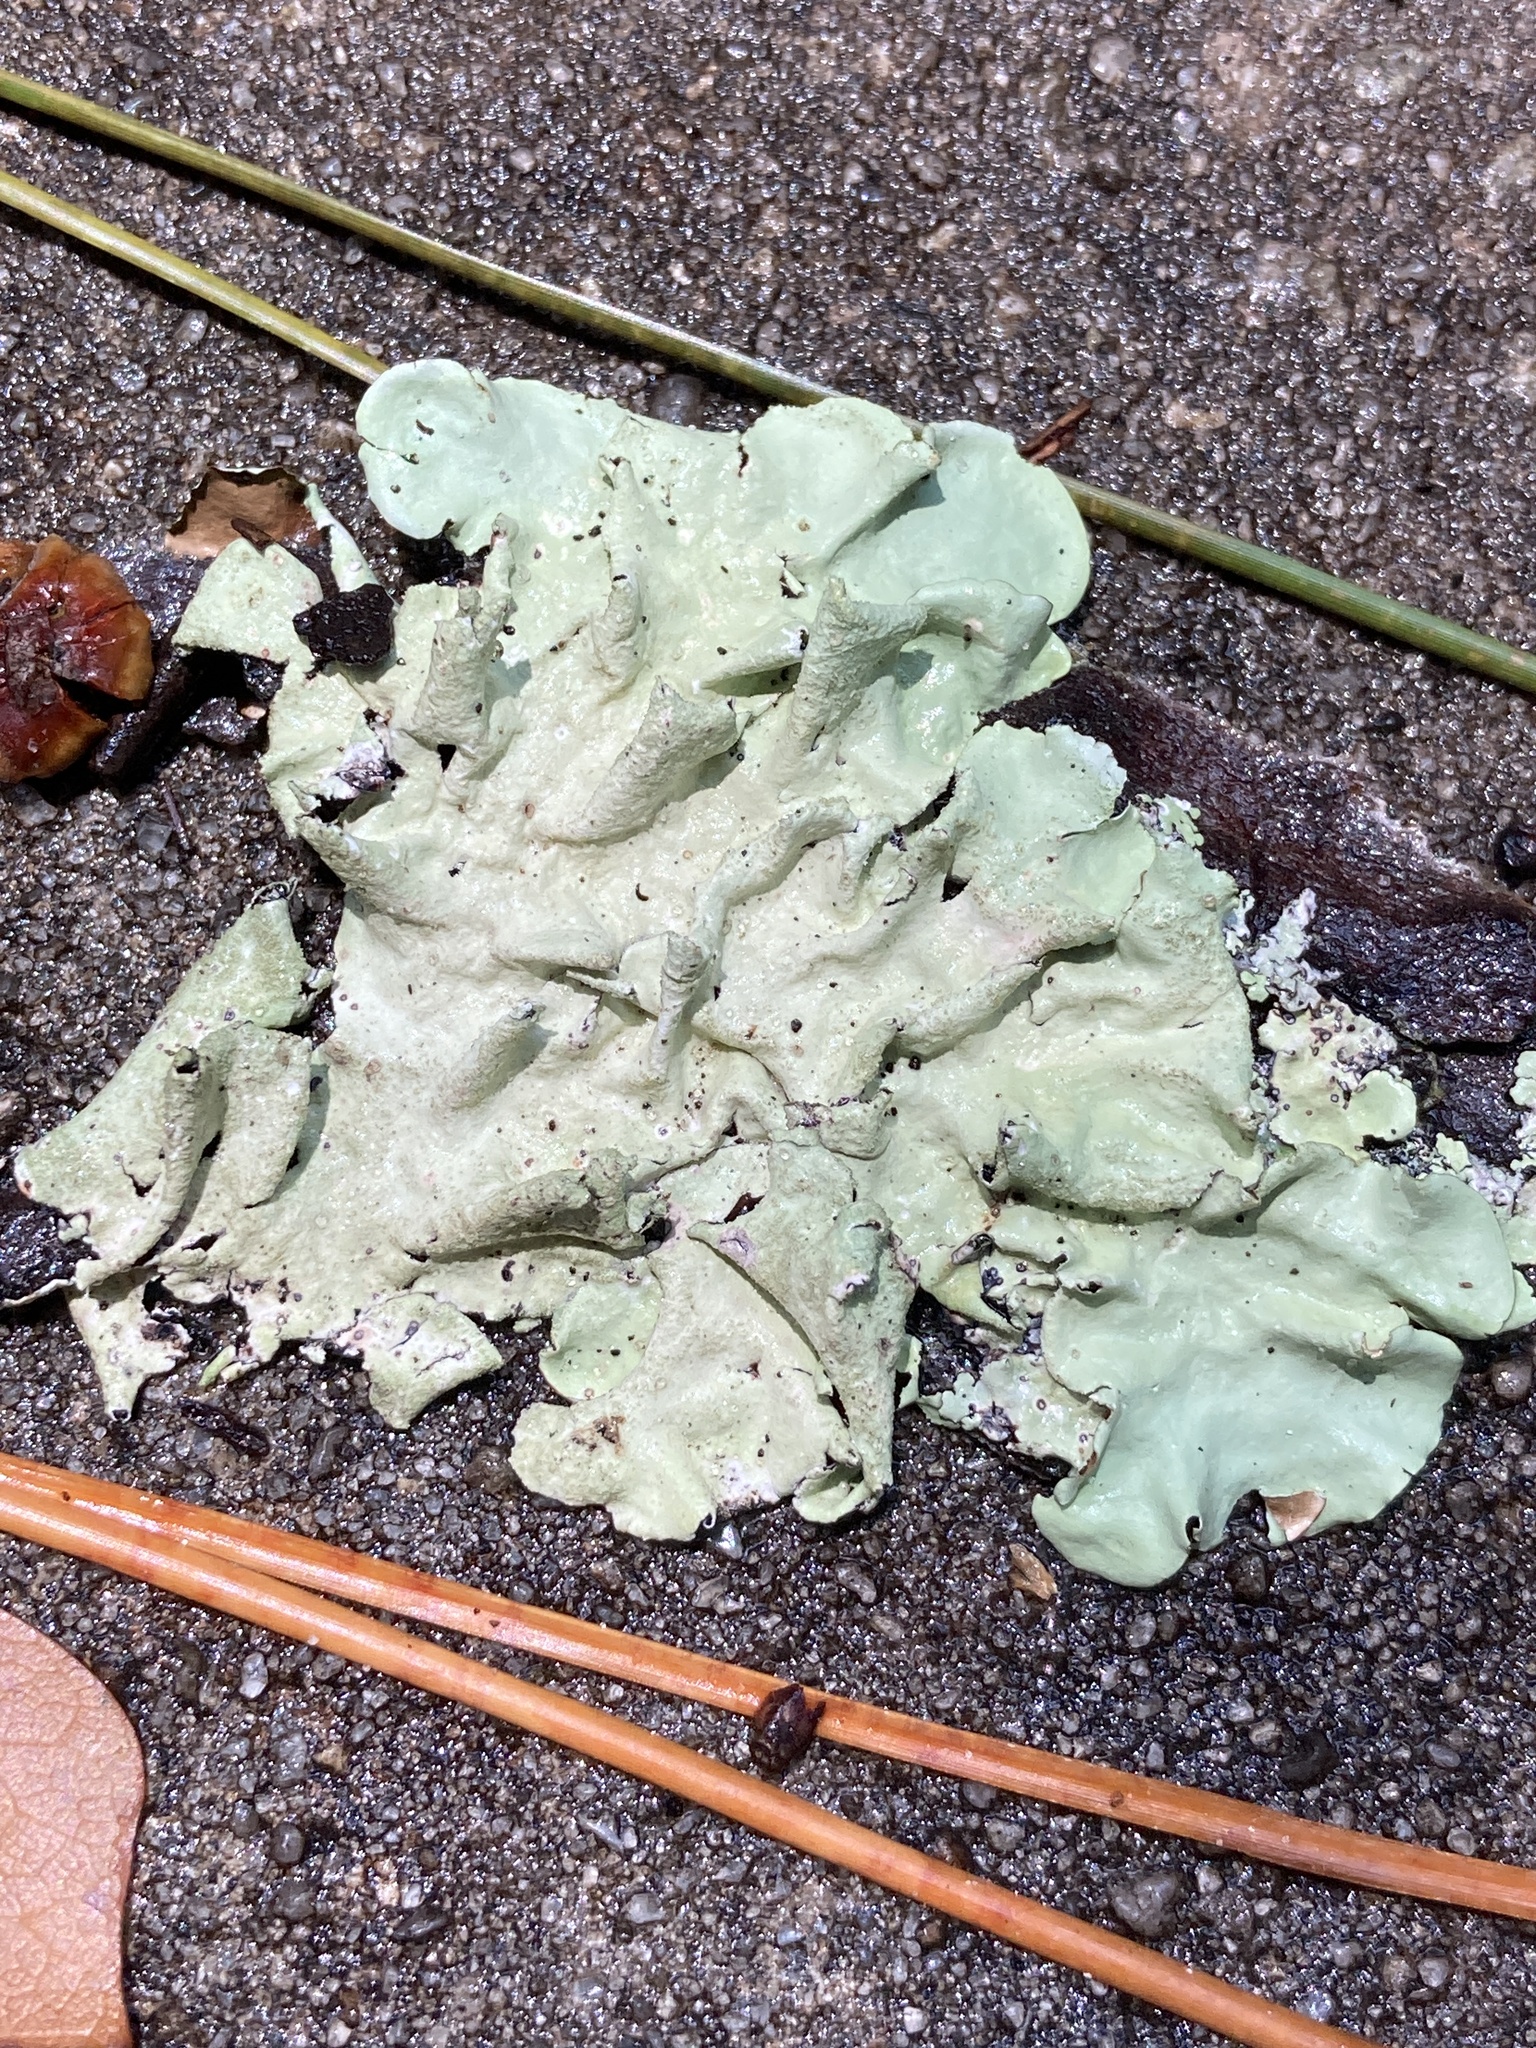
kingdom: Fungi
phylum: Ascomycota
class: Lecanoromycetes
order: Lecanorales
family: Parmeliaceae
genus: Parmotrema
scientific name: Parmotrema tinctorum
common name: Old gray ruffles
